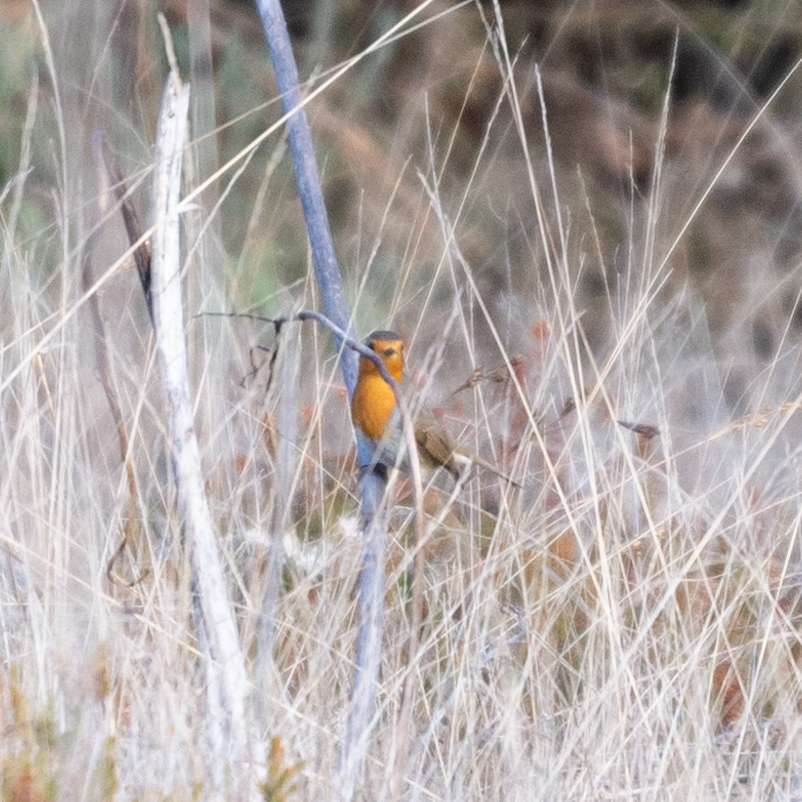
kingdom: Animalia
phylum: Chordata
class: Aves
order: Passeriformes
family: Muscicapidae
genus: Erithacus
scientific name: Erithacus rubecula
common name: European robin
